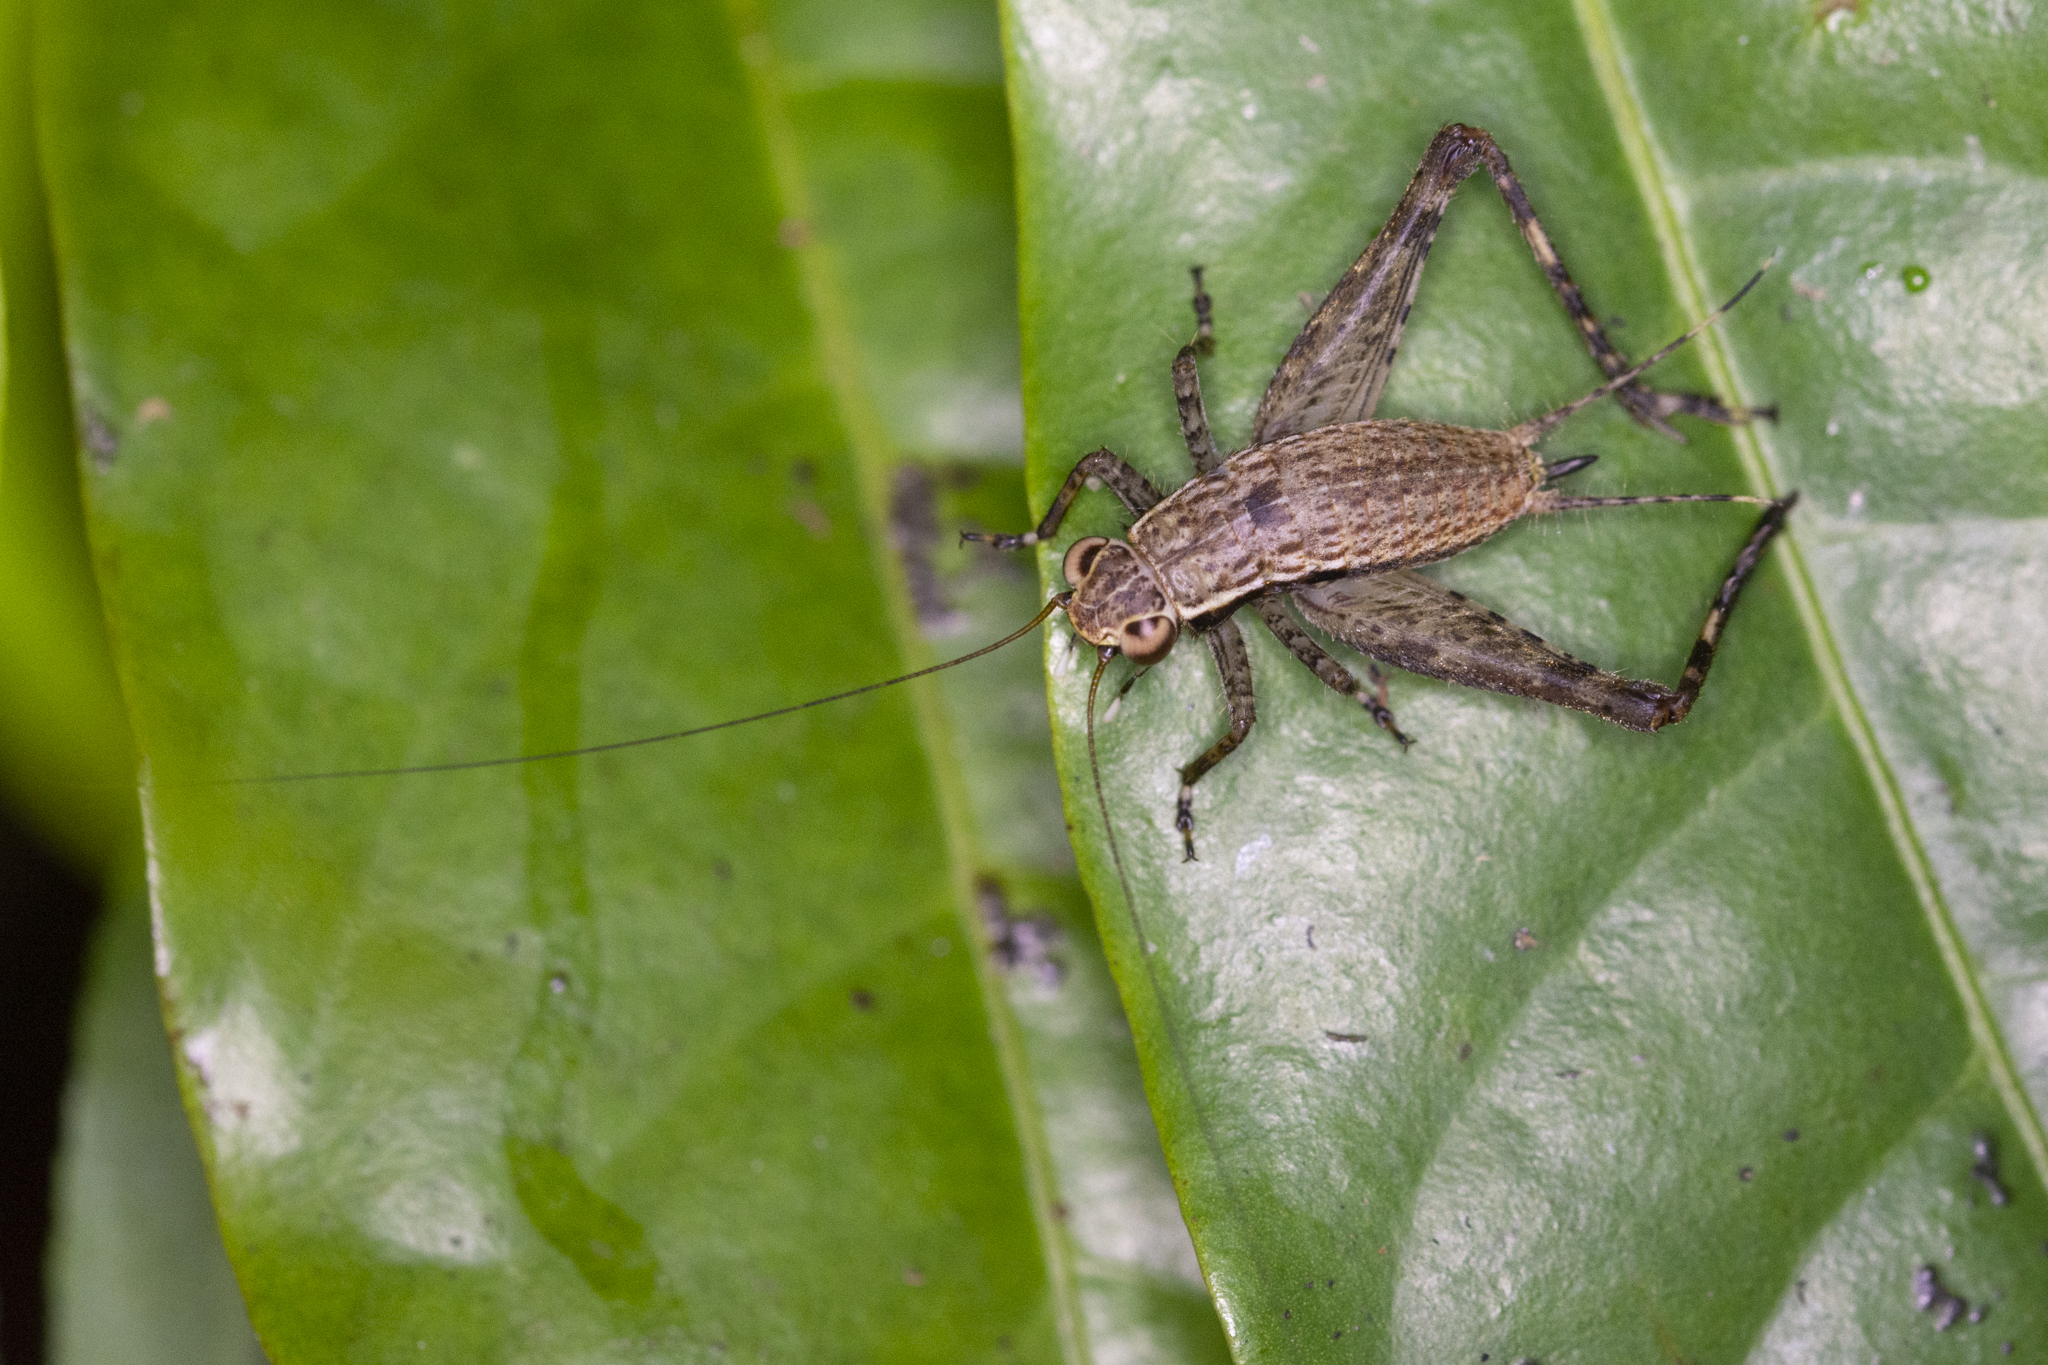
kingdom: Animalia
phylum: Arthropoda
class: Insecta
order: Orthoptera
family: Gryllidae
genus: Lebinthus
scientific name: Lebinthus luae
